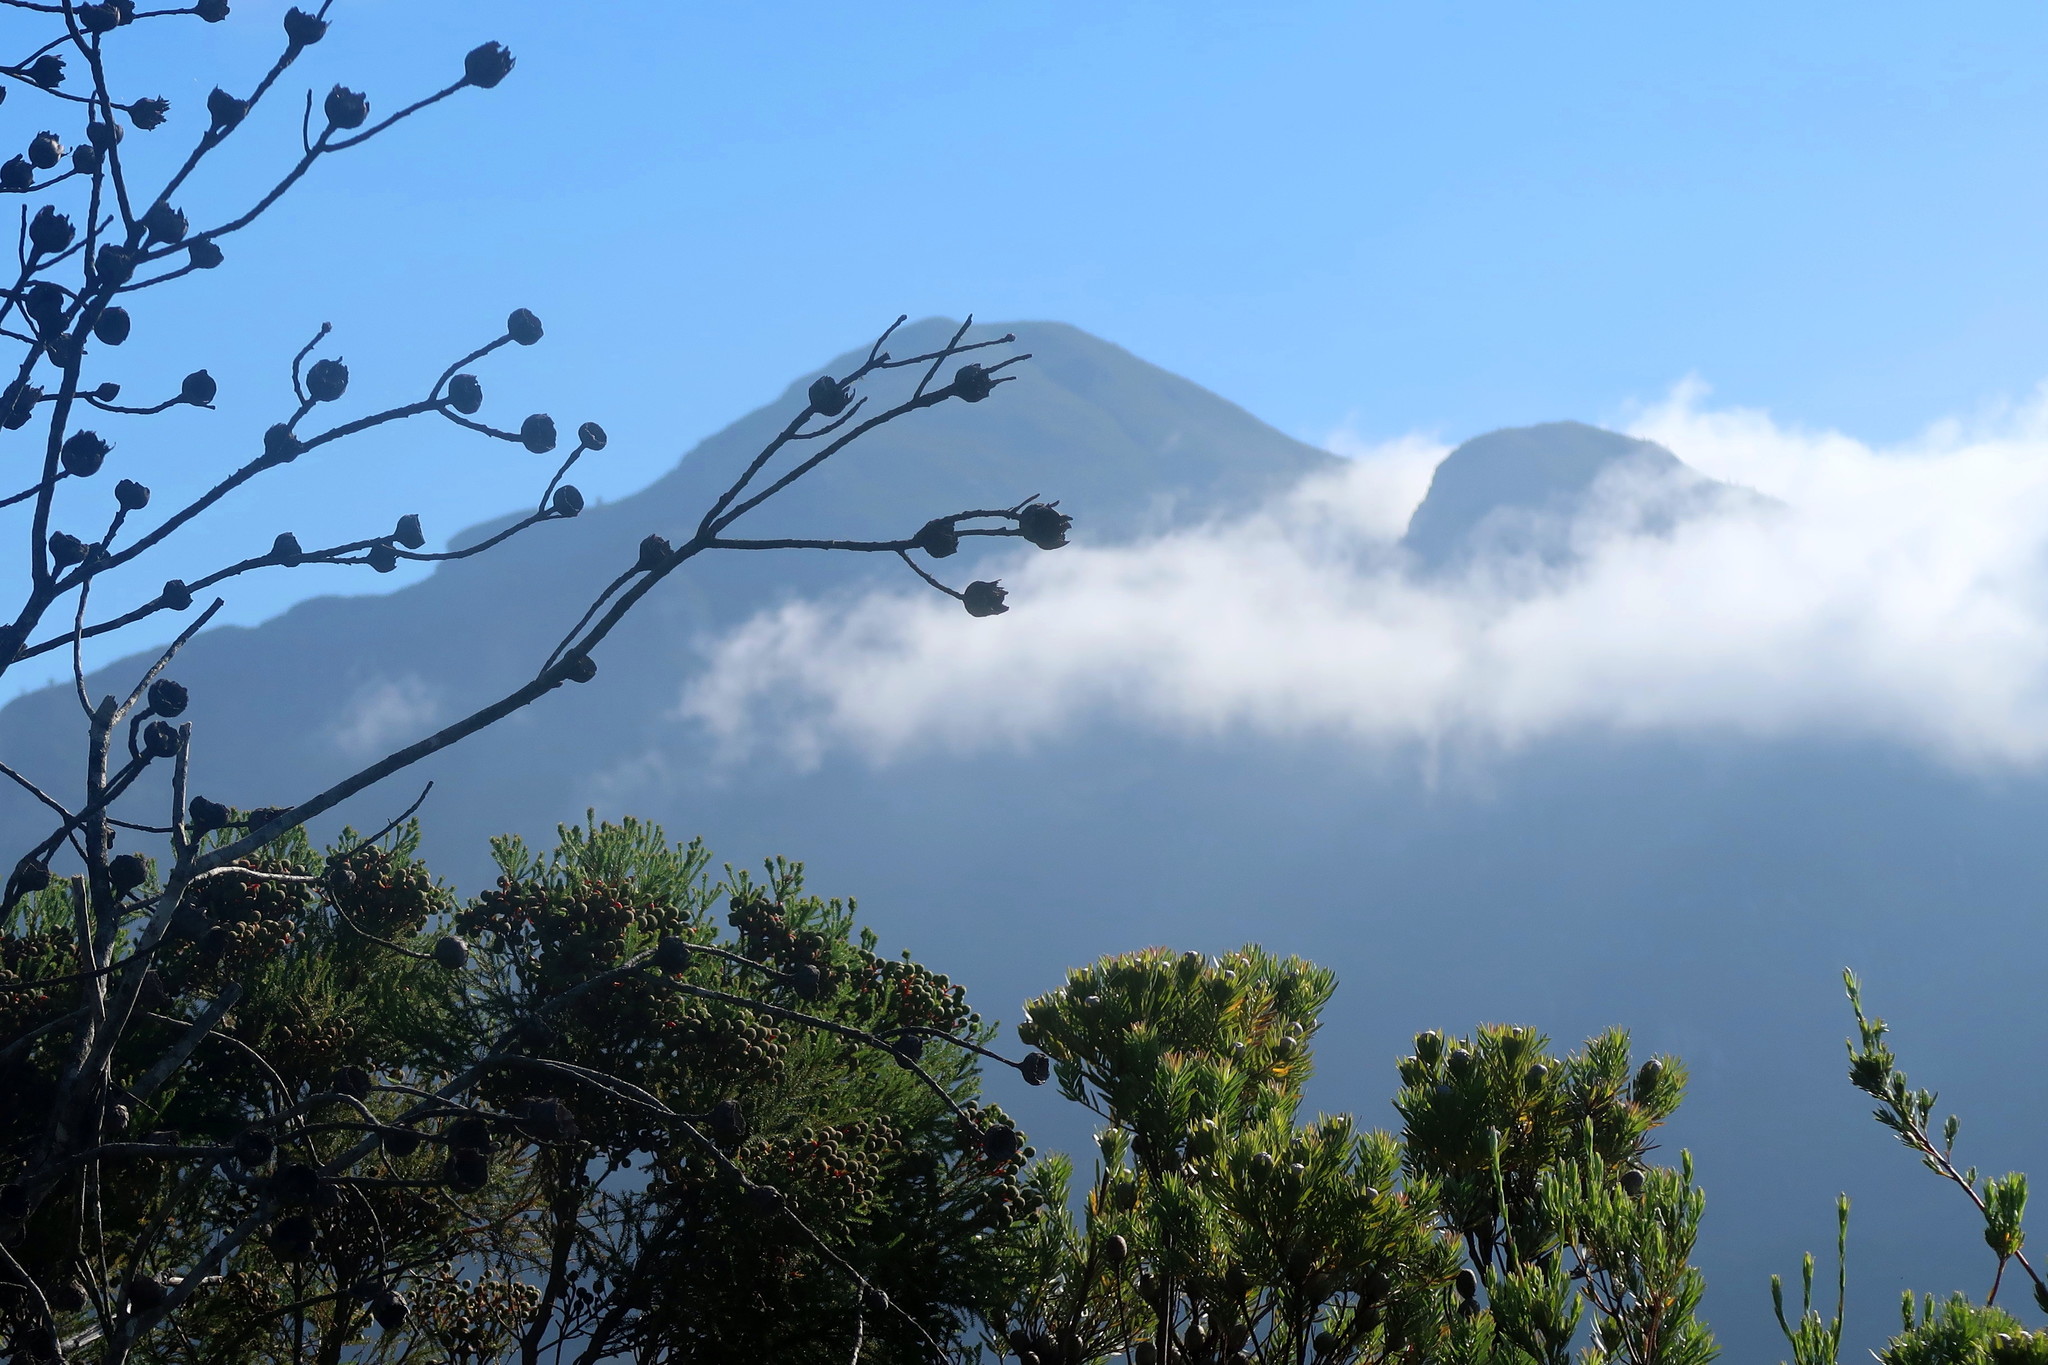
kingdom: Plantae
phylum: Tracheophyta
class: Magnoliopsida
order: Proteales
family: Proteaceae
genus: Protea
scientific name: Protea mundii
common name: Forest sugarbush
